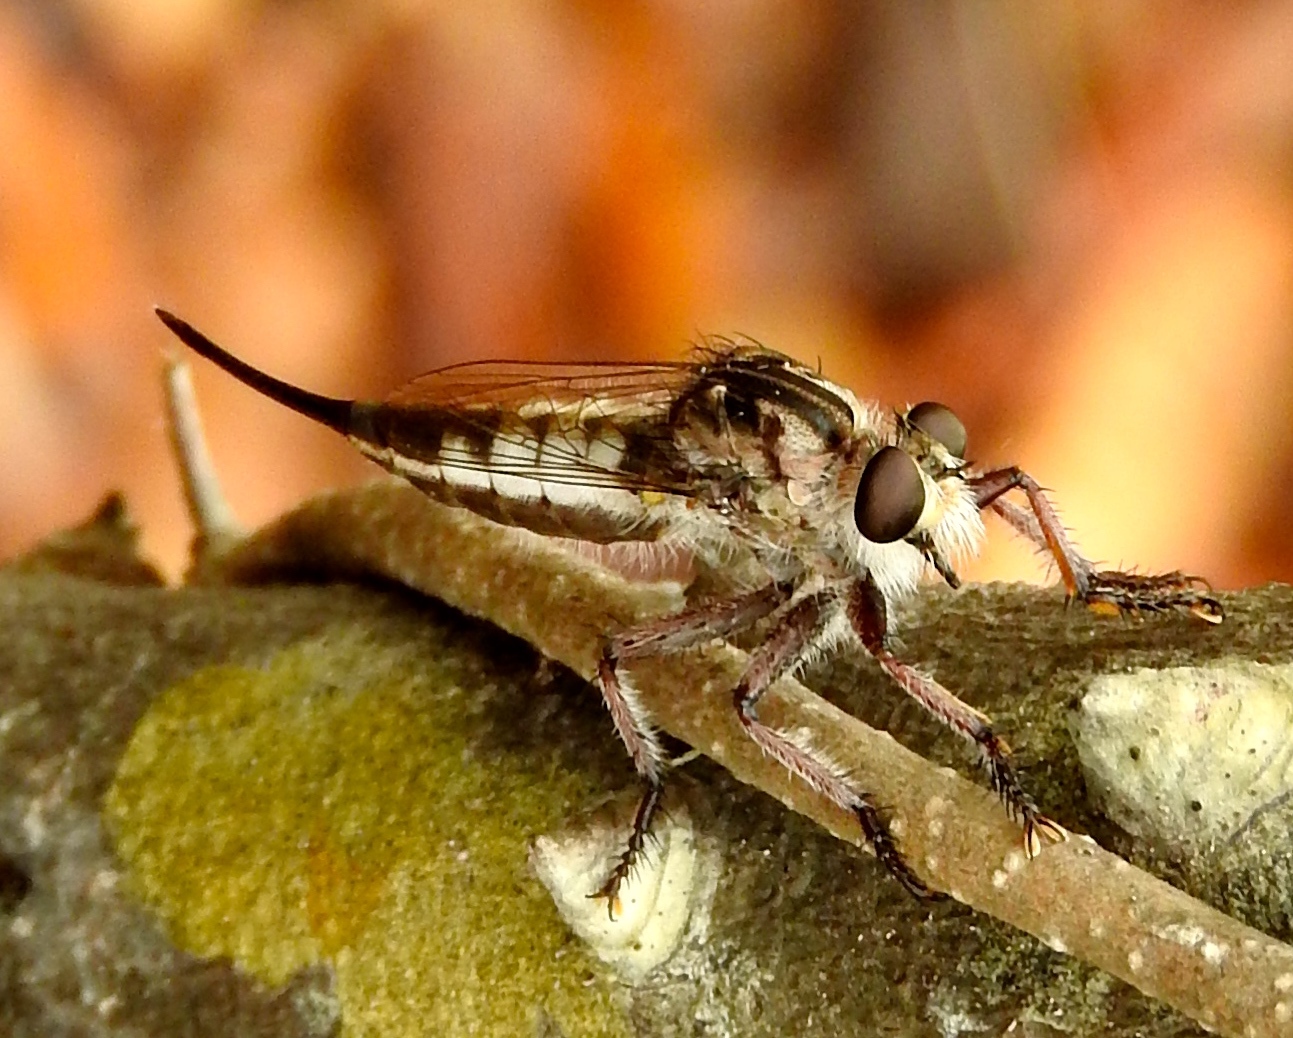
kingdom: Animalia
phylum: Arthropoda
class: Insecta
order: Diptera
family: Asilidae
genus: Efferia
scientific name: Efferia triton
